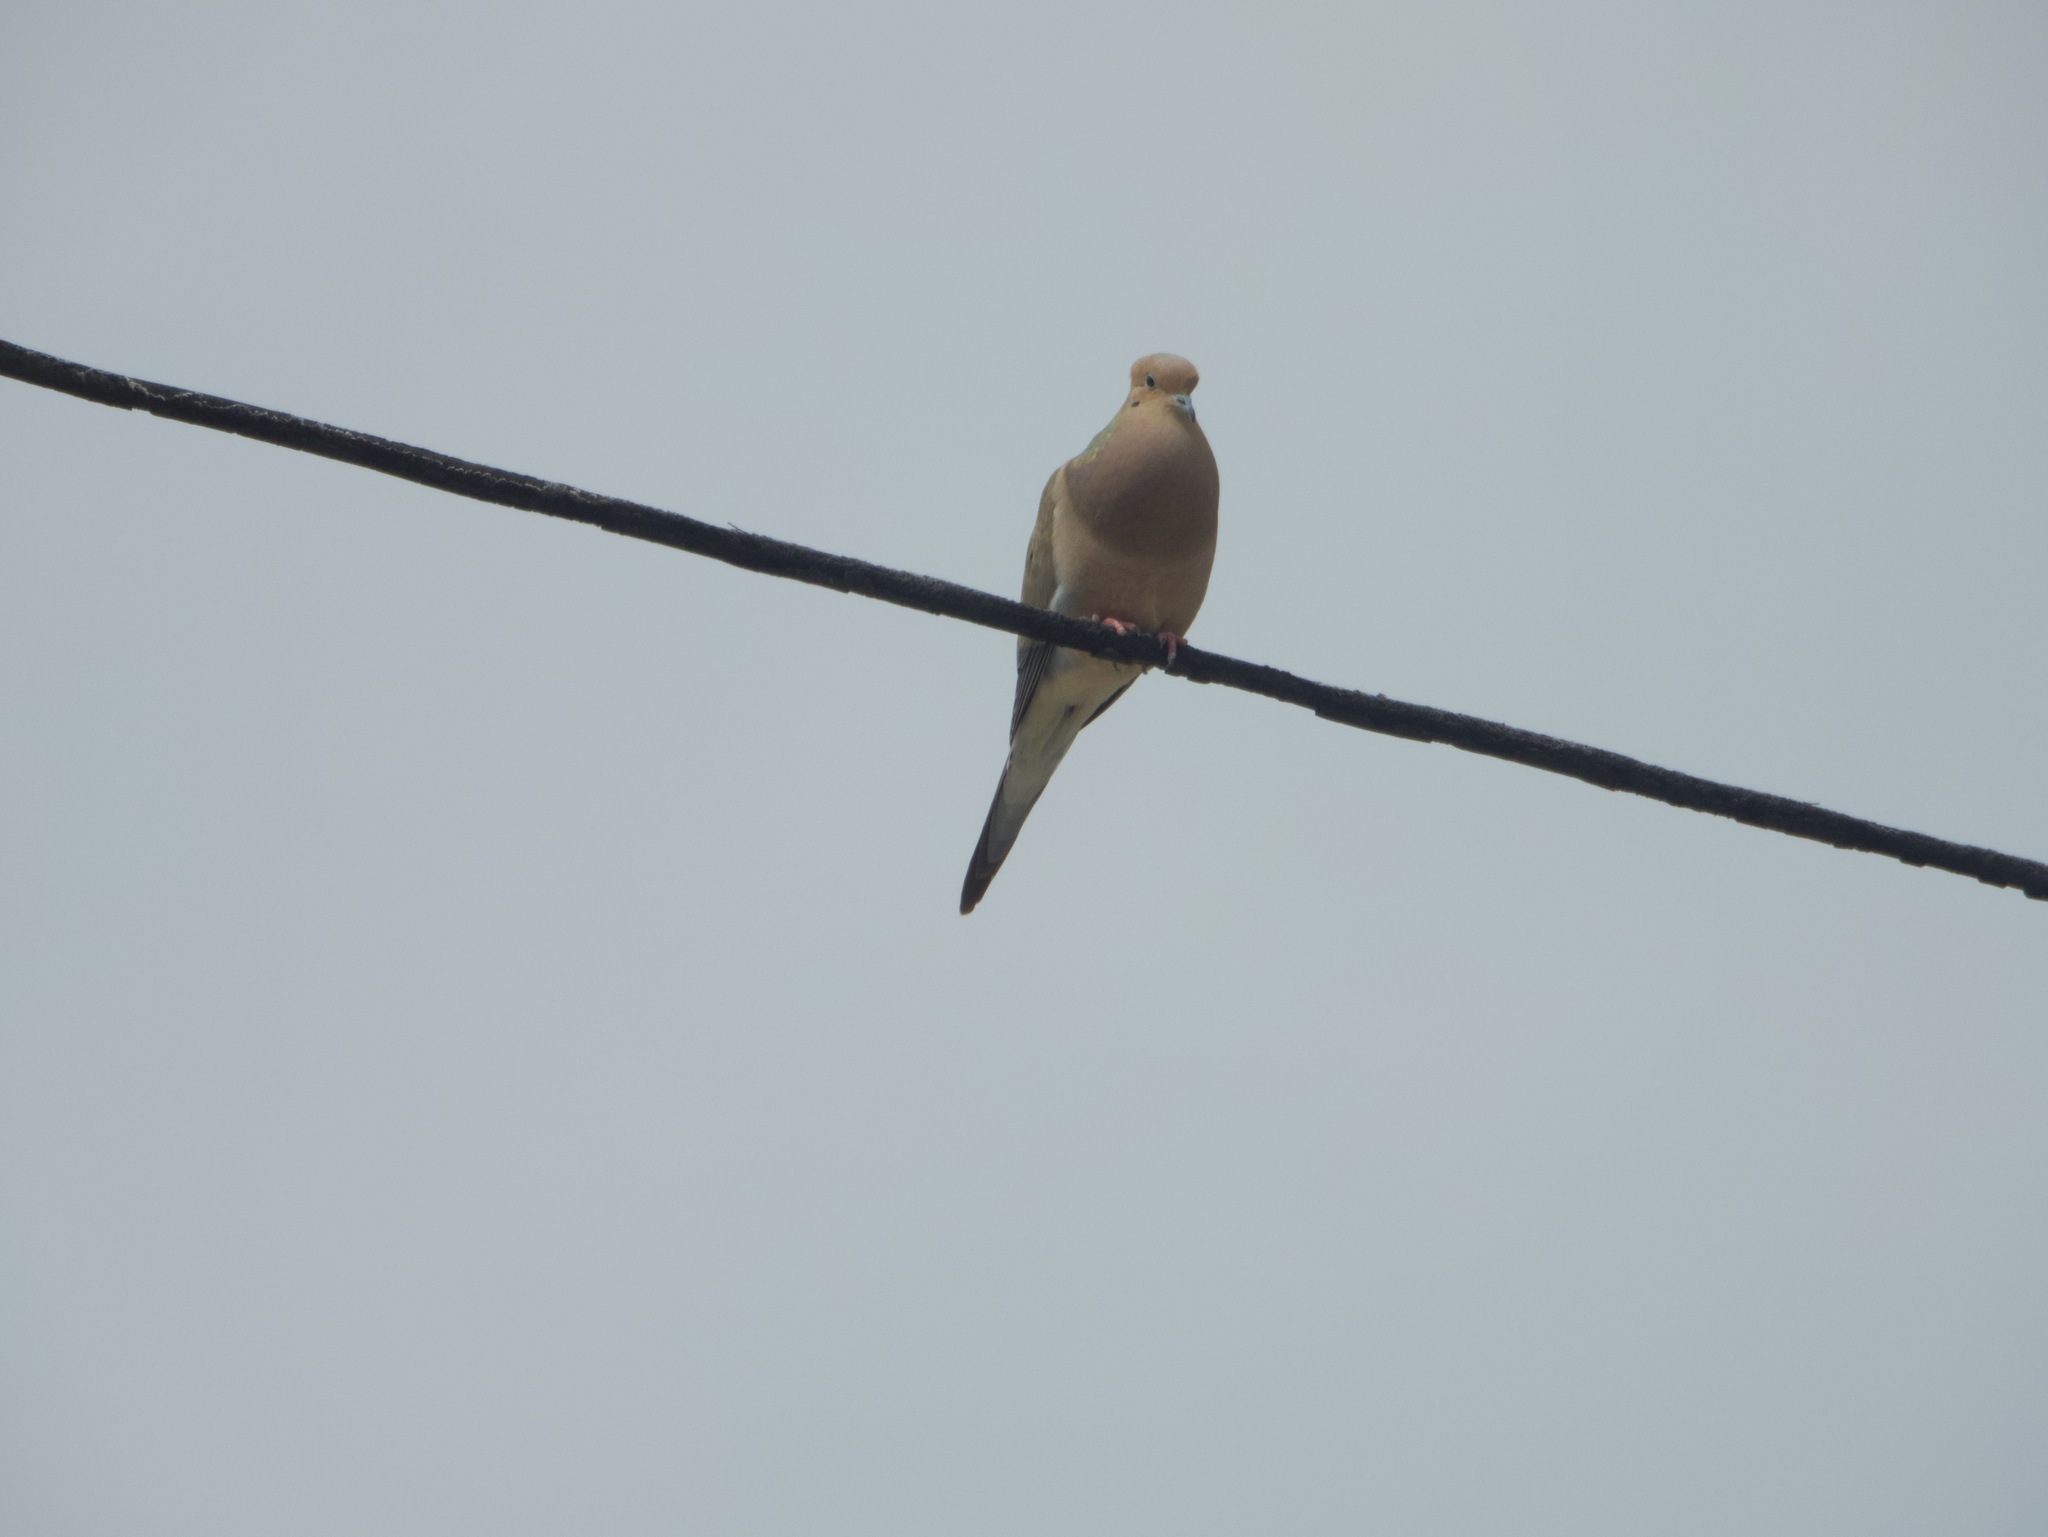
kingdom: Animalia
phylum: Chordata
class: Aves
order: Columbiformes
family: Columbidae
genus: Zenaida
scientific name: Zenaida macroura
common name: Mourning dove
